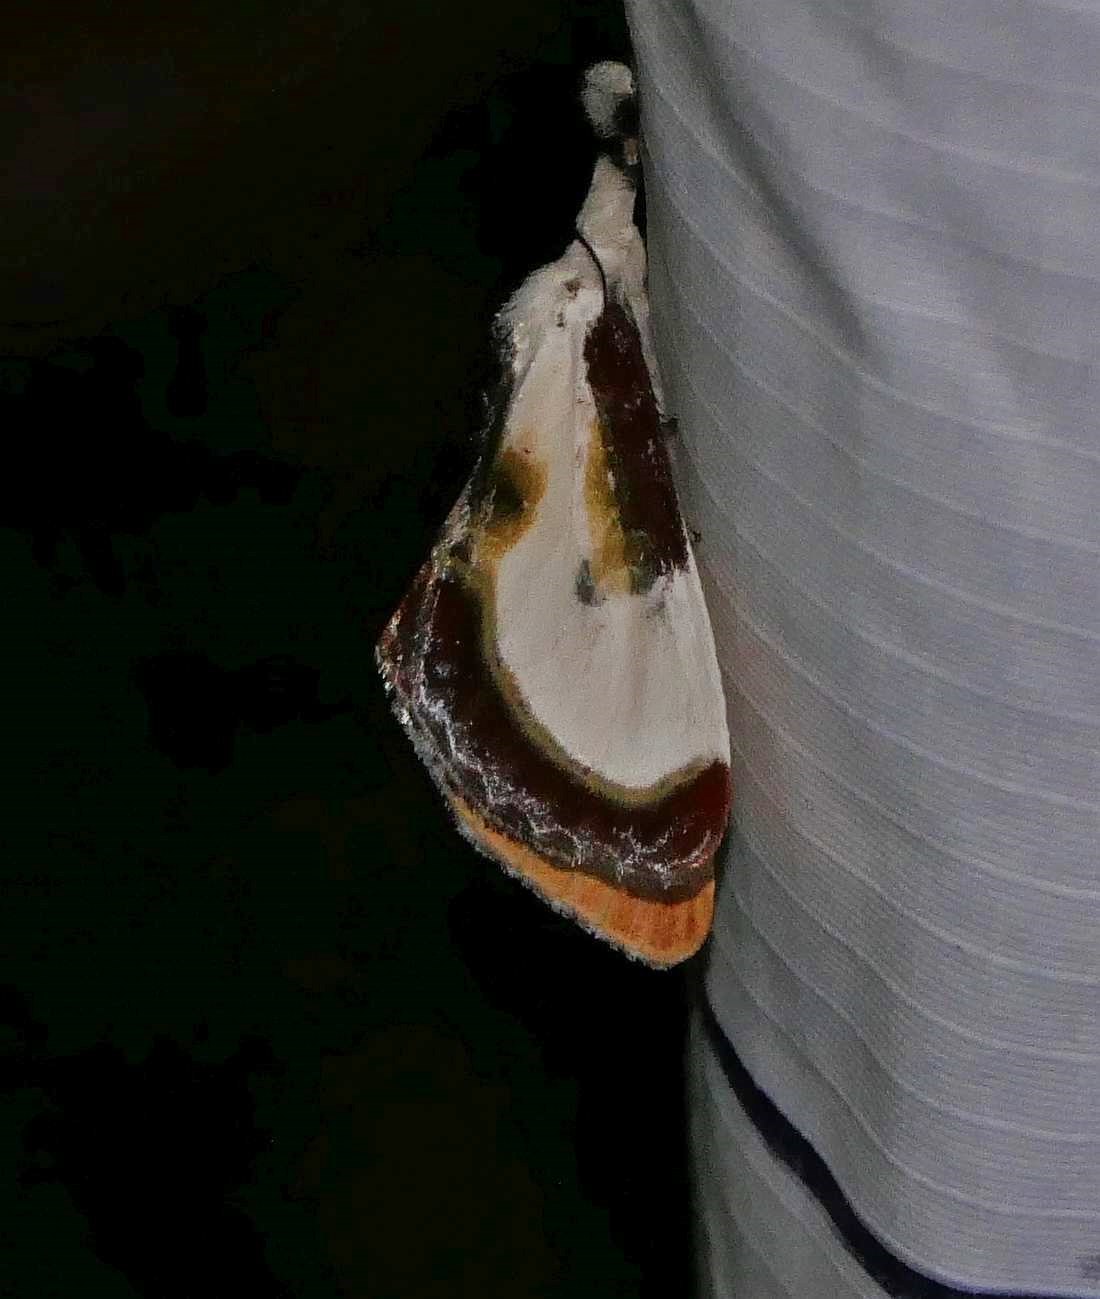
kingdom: Animalia
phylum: Arthropoda
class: Insecta
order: Lepidoptera
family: Noctuidae
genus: Eudryas
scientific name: Eudryas grata
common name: Beautiful wood-nymph
